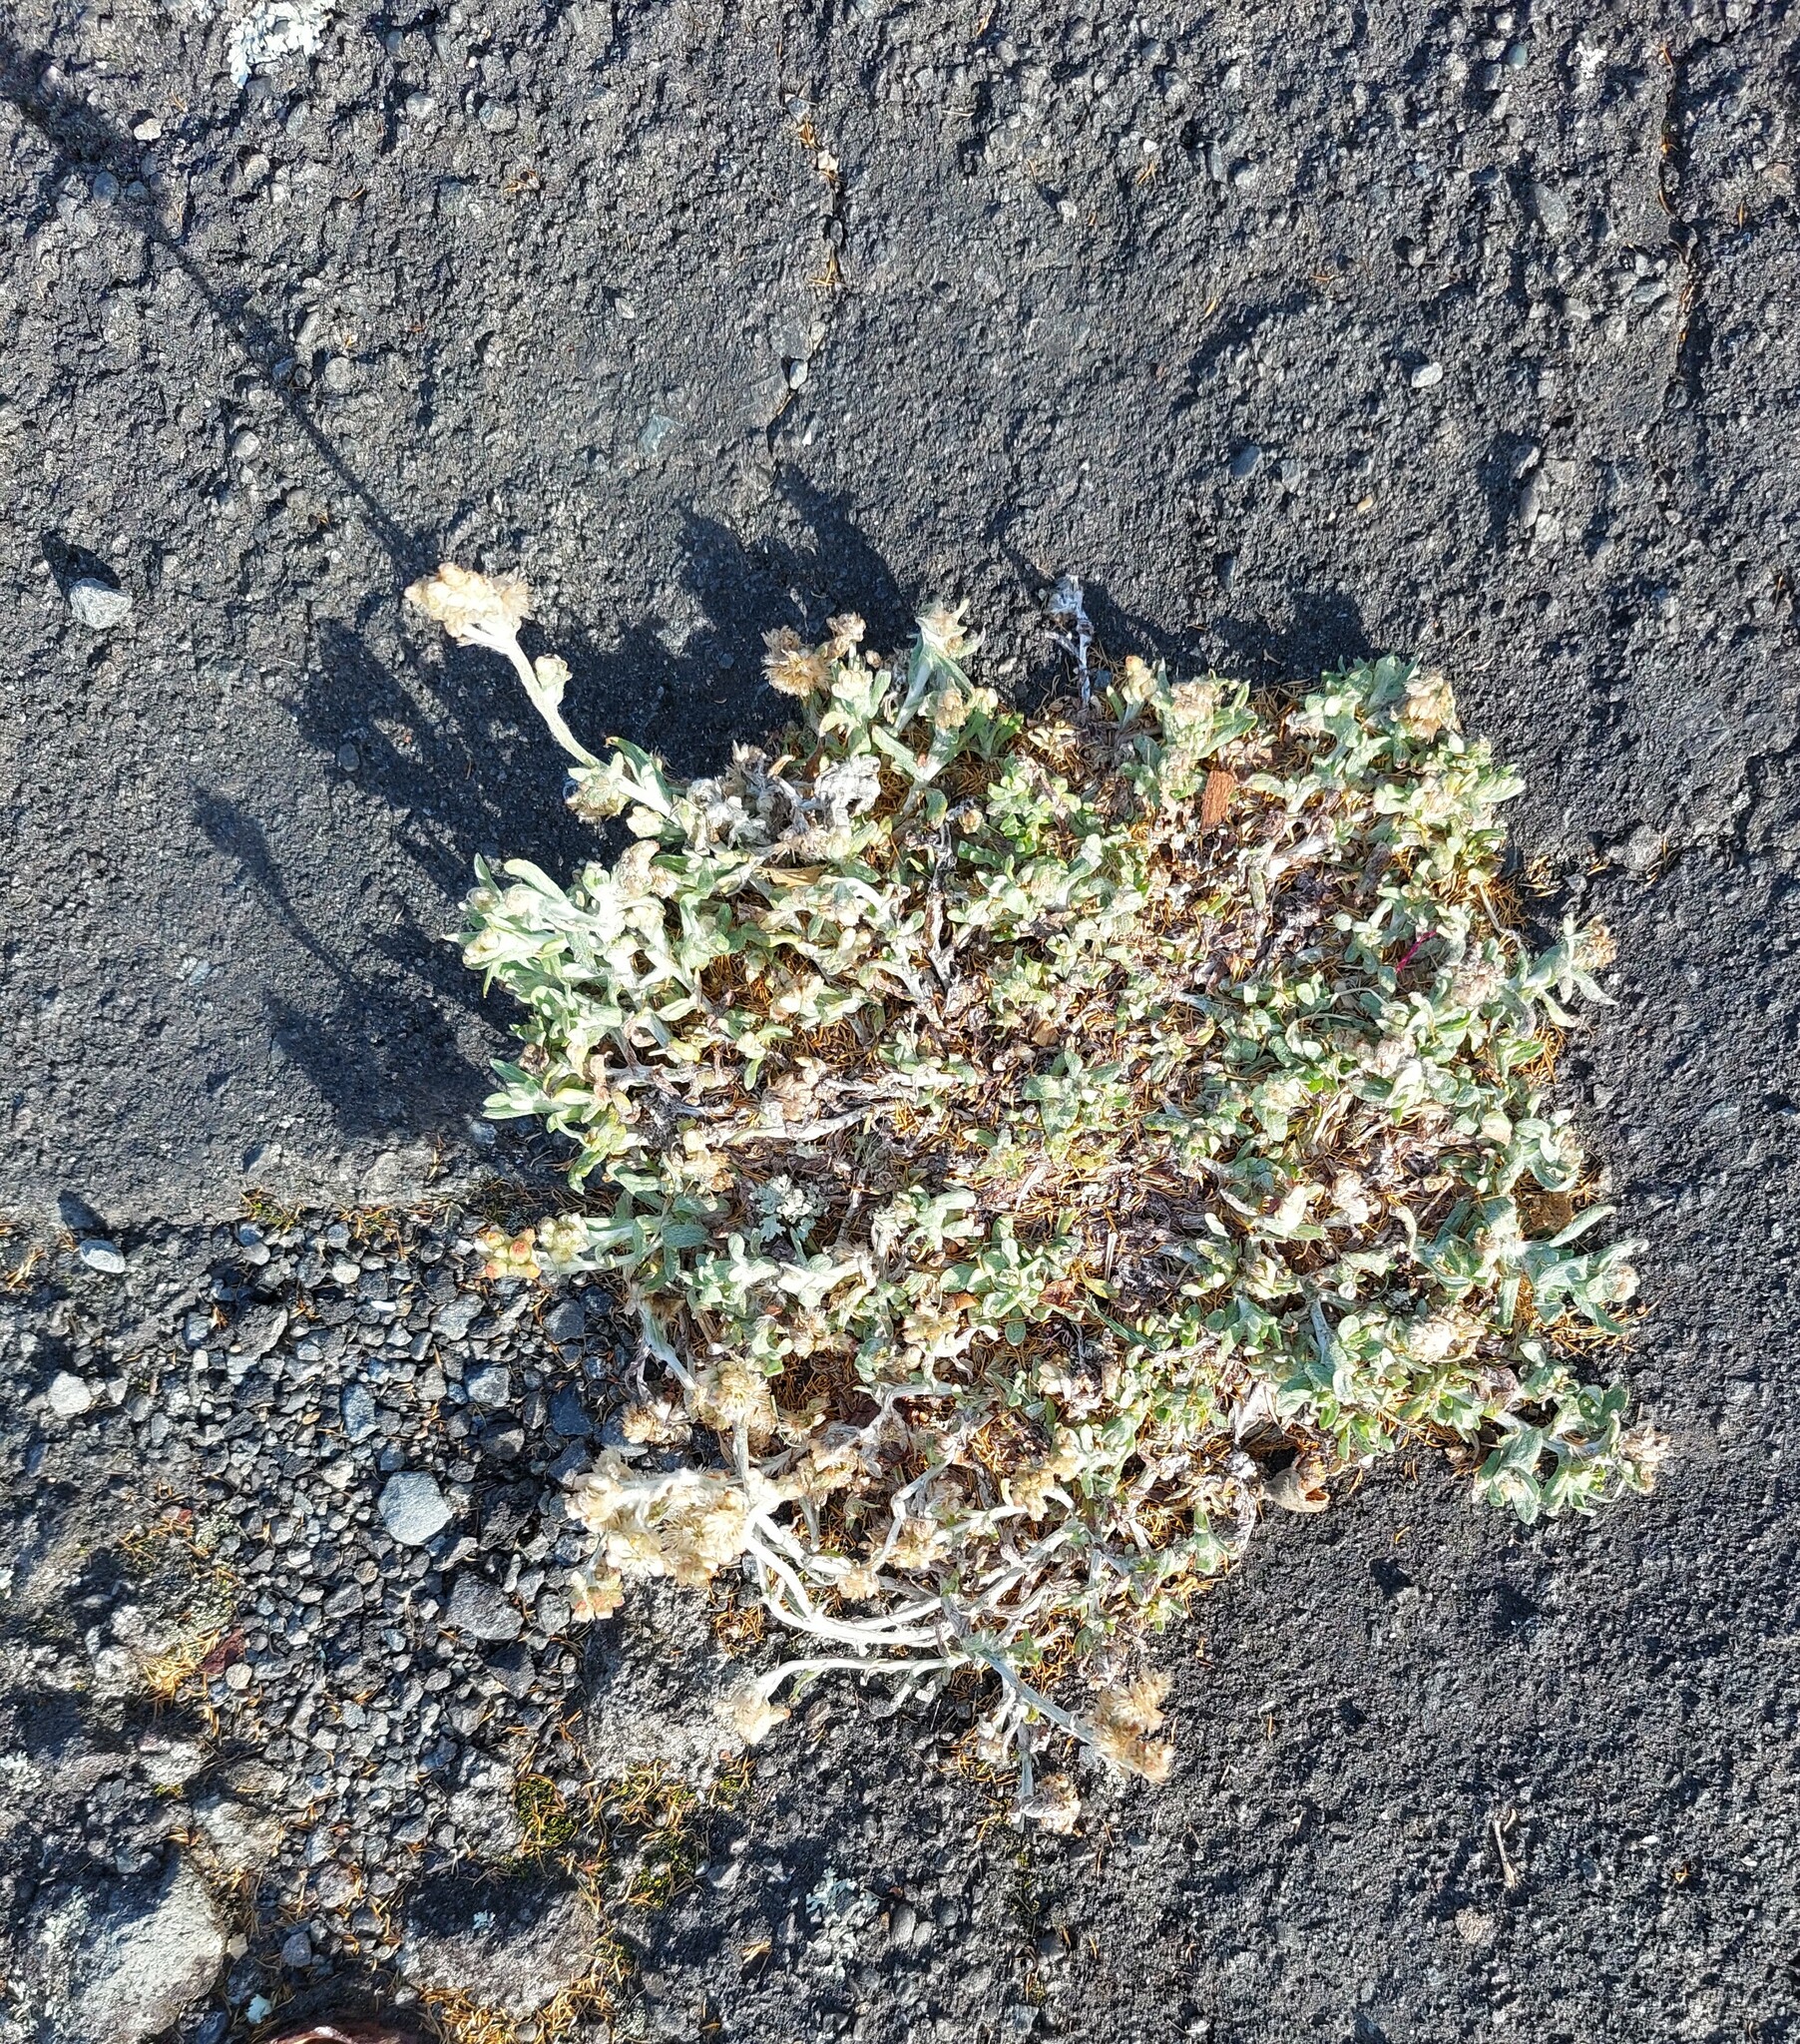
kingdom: Plantae
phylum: Tracheophyta
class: Magnoliopsida
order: Asterales
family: Asteraceae
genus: Helichrysum
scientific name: Helichrysum luteoalbum
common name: Daisy
